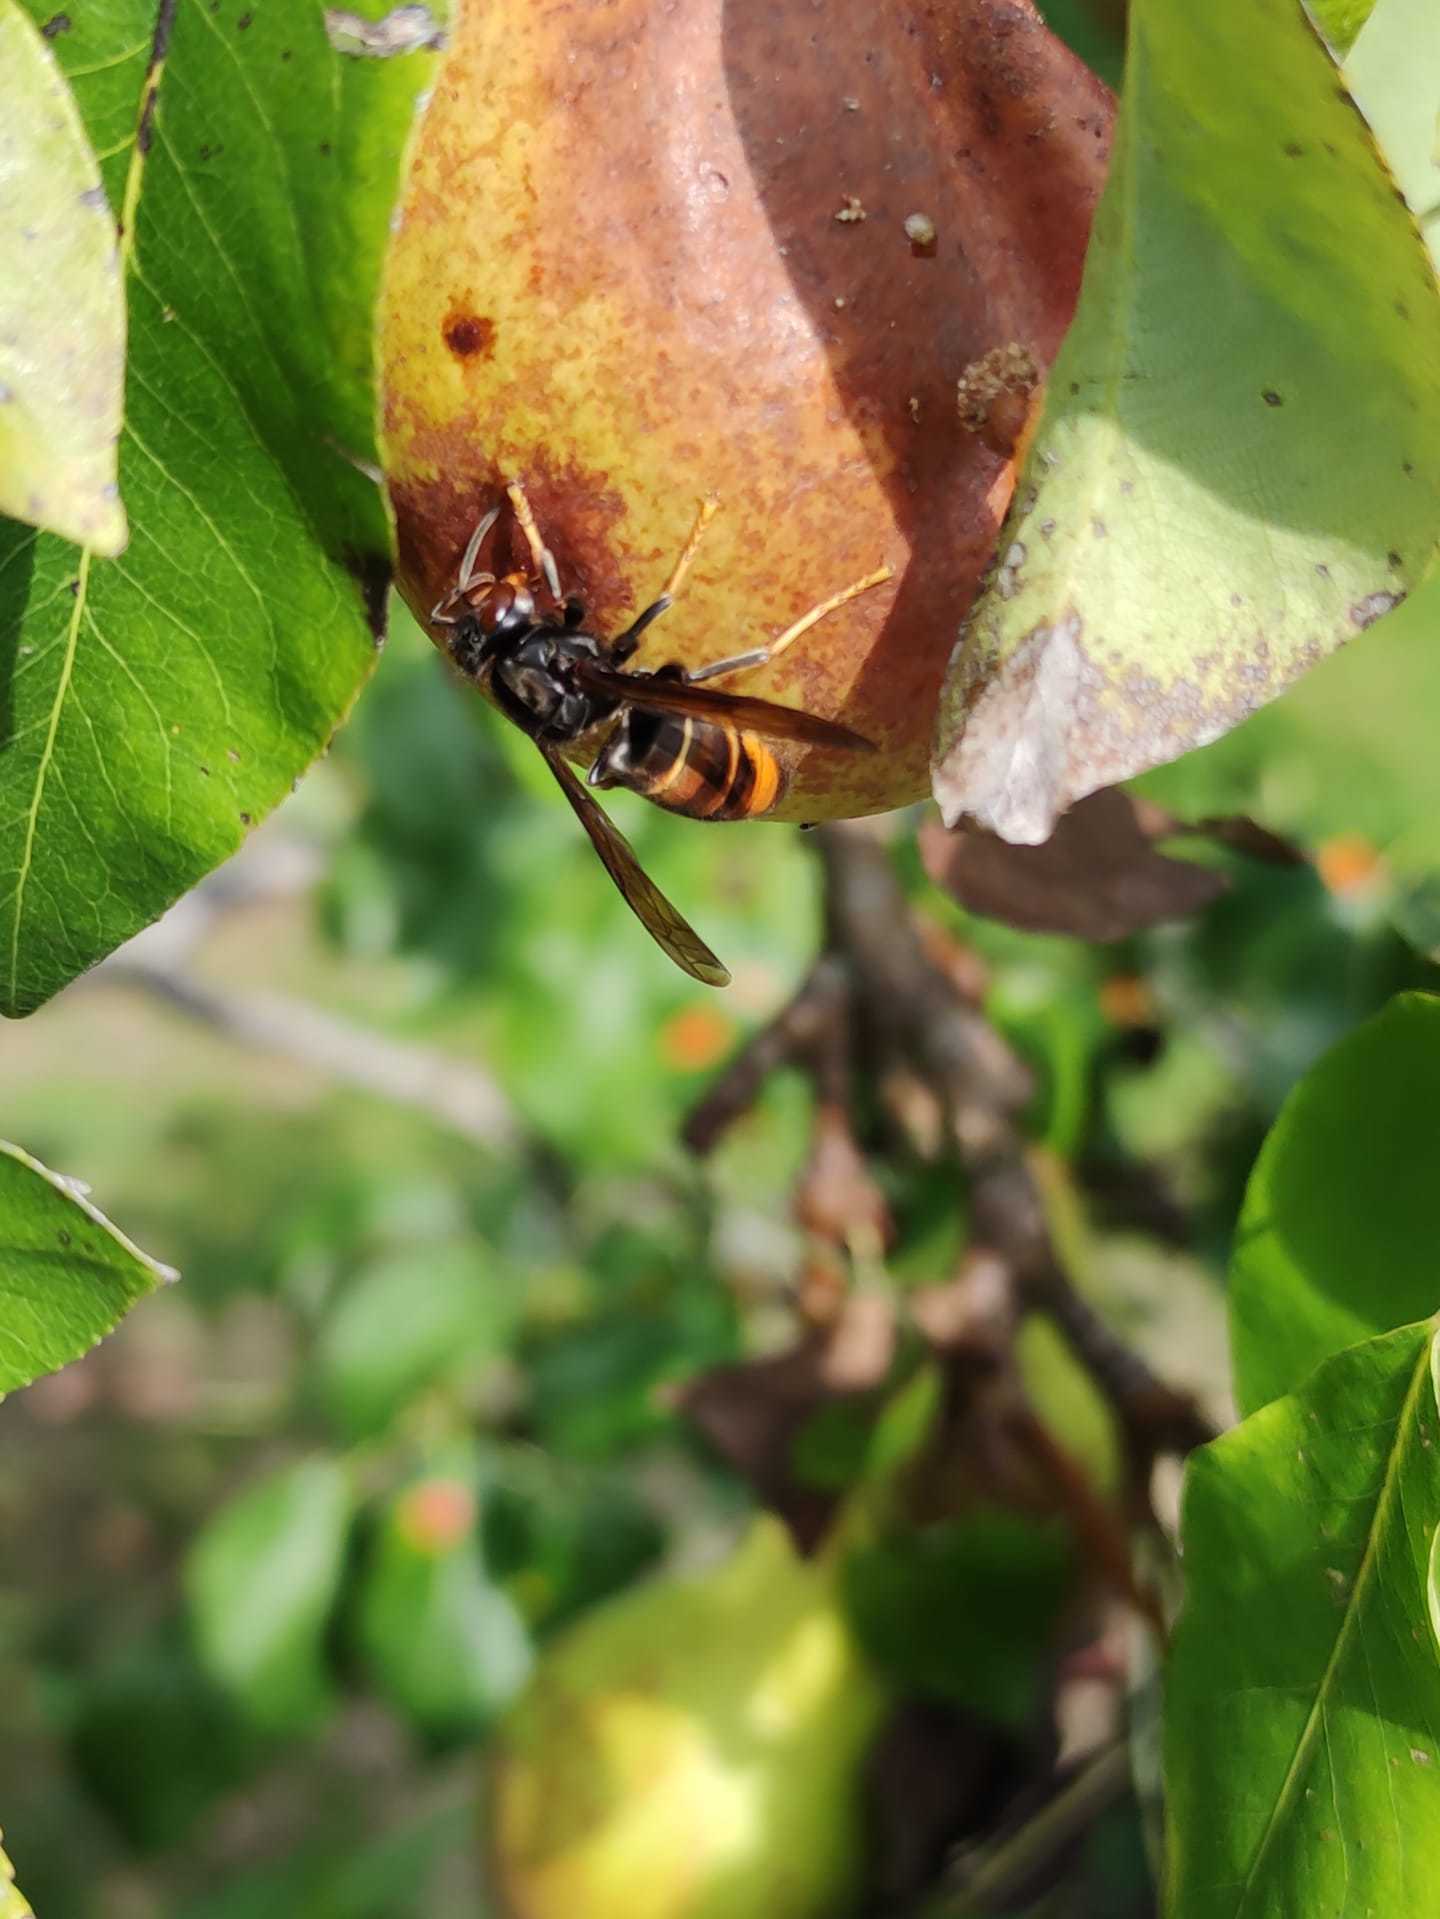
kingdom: Animalia
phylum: Arthropoda
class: Insecta
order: Hymenoptera
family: Vespidae
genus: Vespa
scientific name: Vespa velutina
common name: Asian hornet
